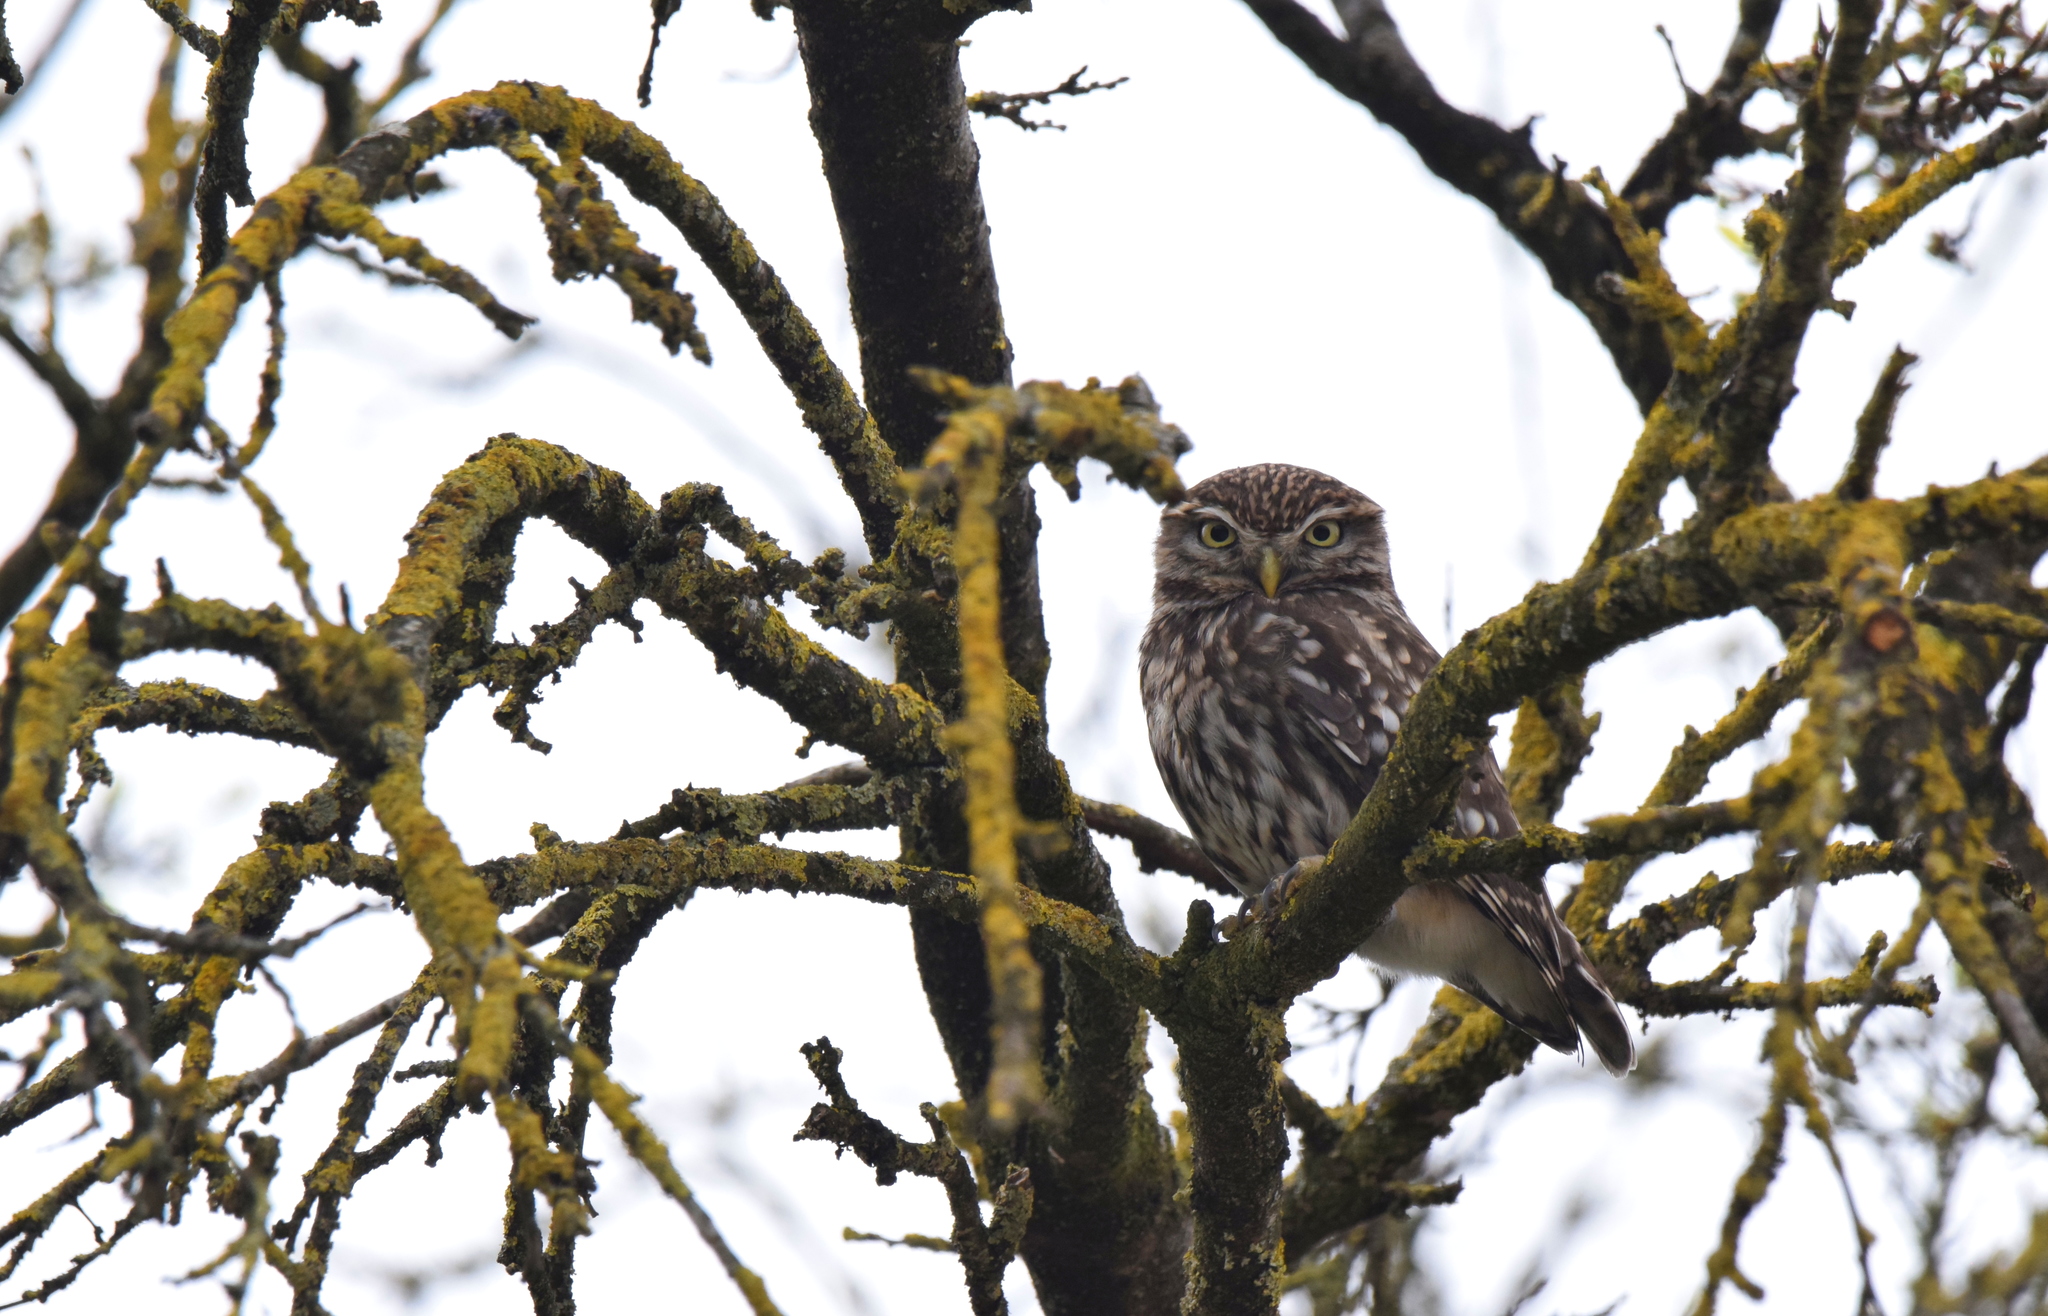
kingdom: Animalia
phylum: Chordata
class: Aves
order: Strigiformes
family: Strigidae
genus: Athene
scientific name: Athene noctua
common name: Little owl
